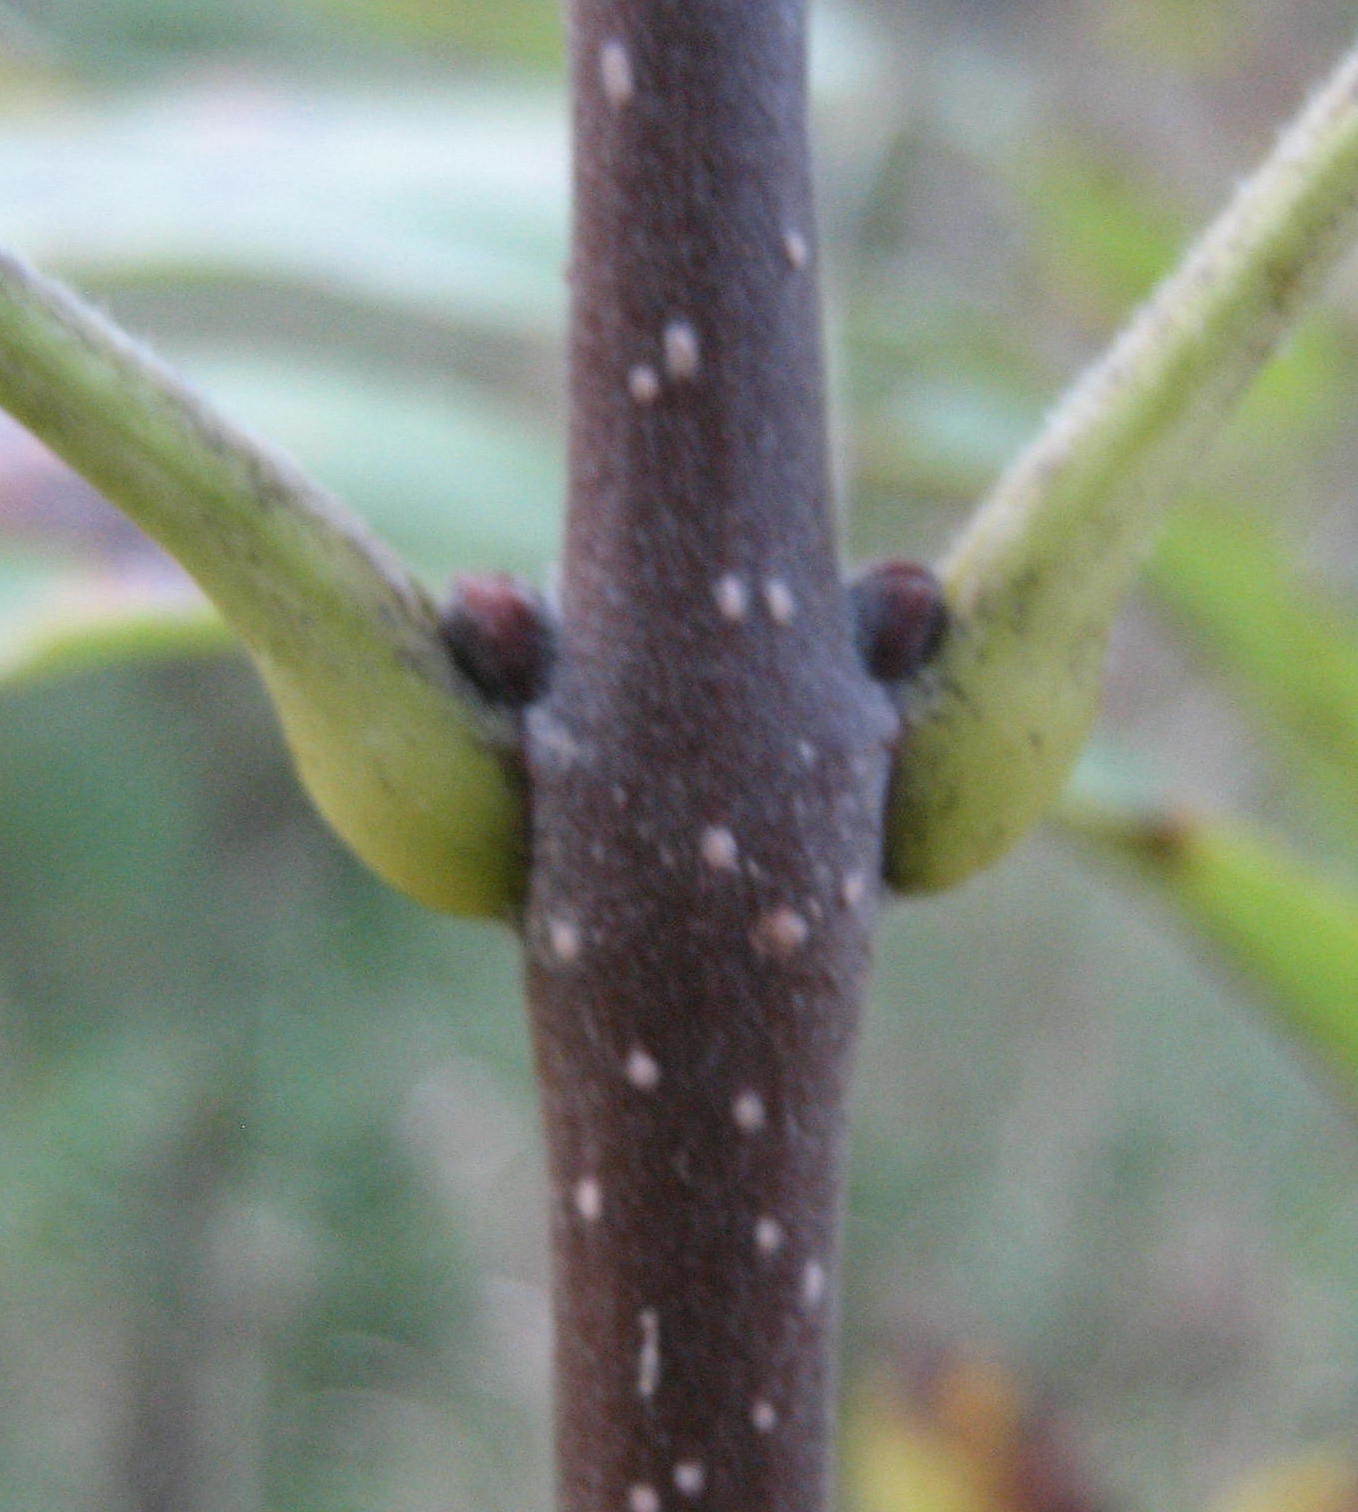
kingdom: Plantae
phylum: Tracheophyta
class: Magnoliopsida
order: Lamiales
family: Oleaceae
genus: Fraxinus
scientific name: Fraxinus pennsylvanica
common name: Green ash
